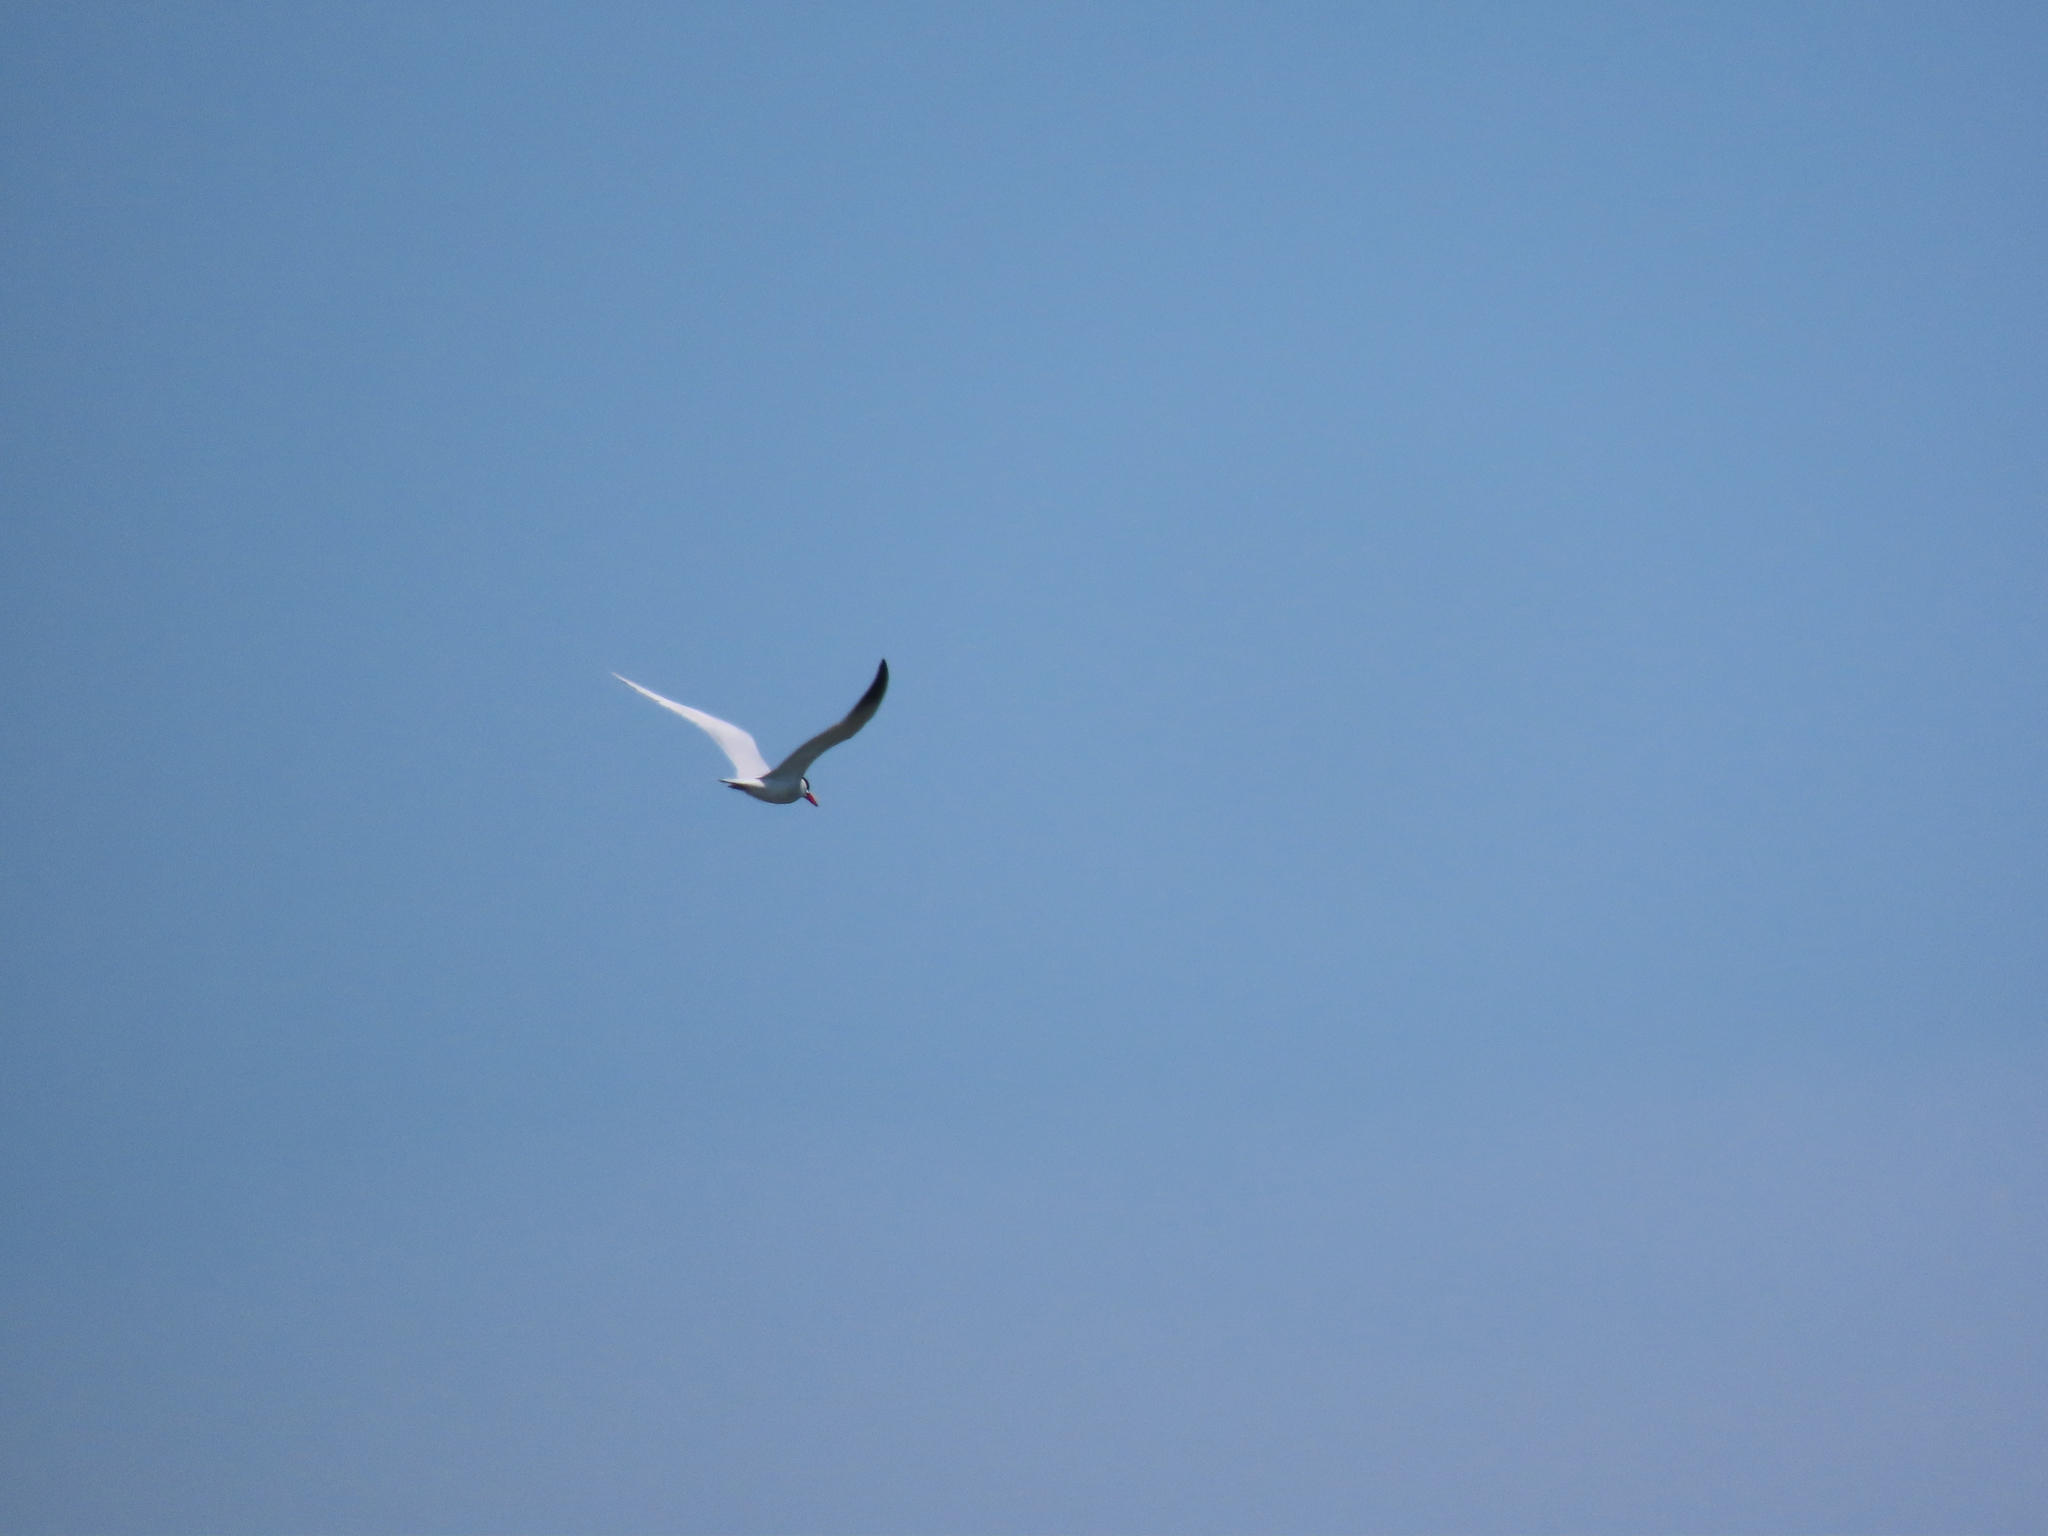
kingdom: Animalia
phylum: Chordata
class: Aves
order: Charadriiformes
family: Laridae
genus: Hydroprogne
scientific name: Hydroprogne caspia
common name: Caspian tern
